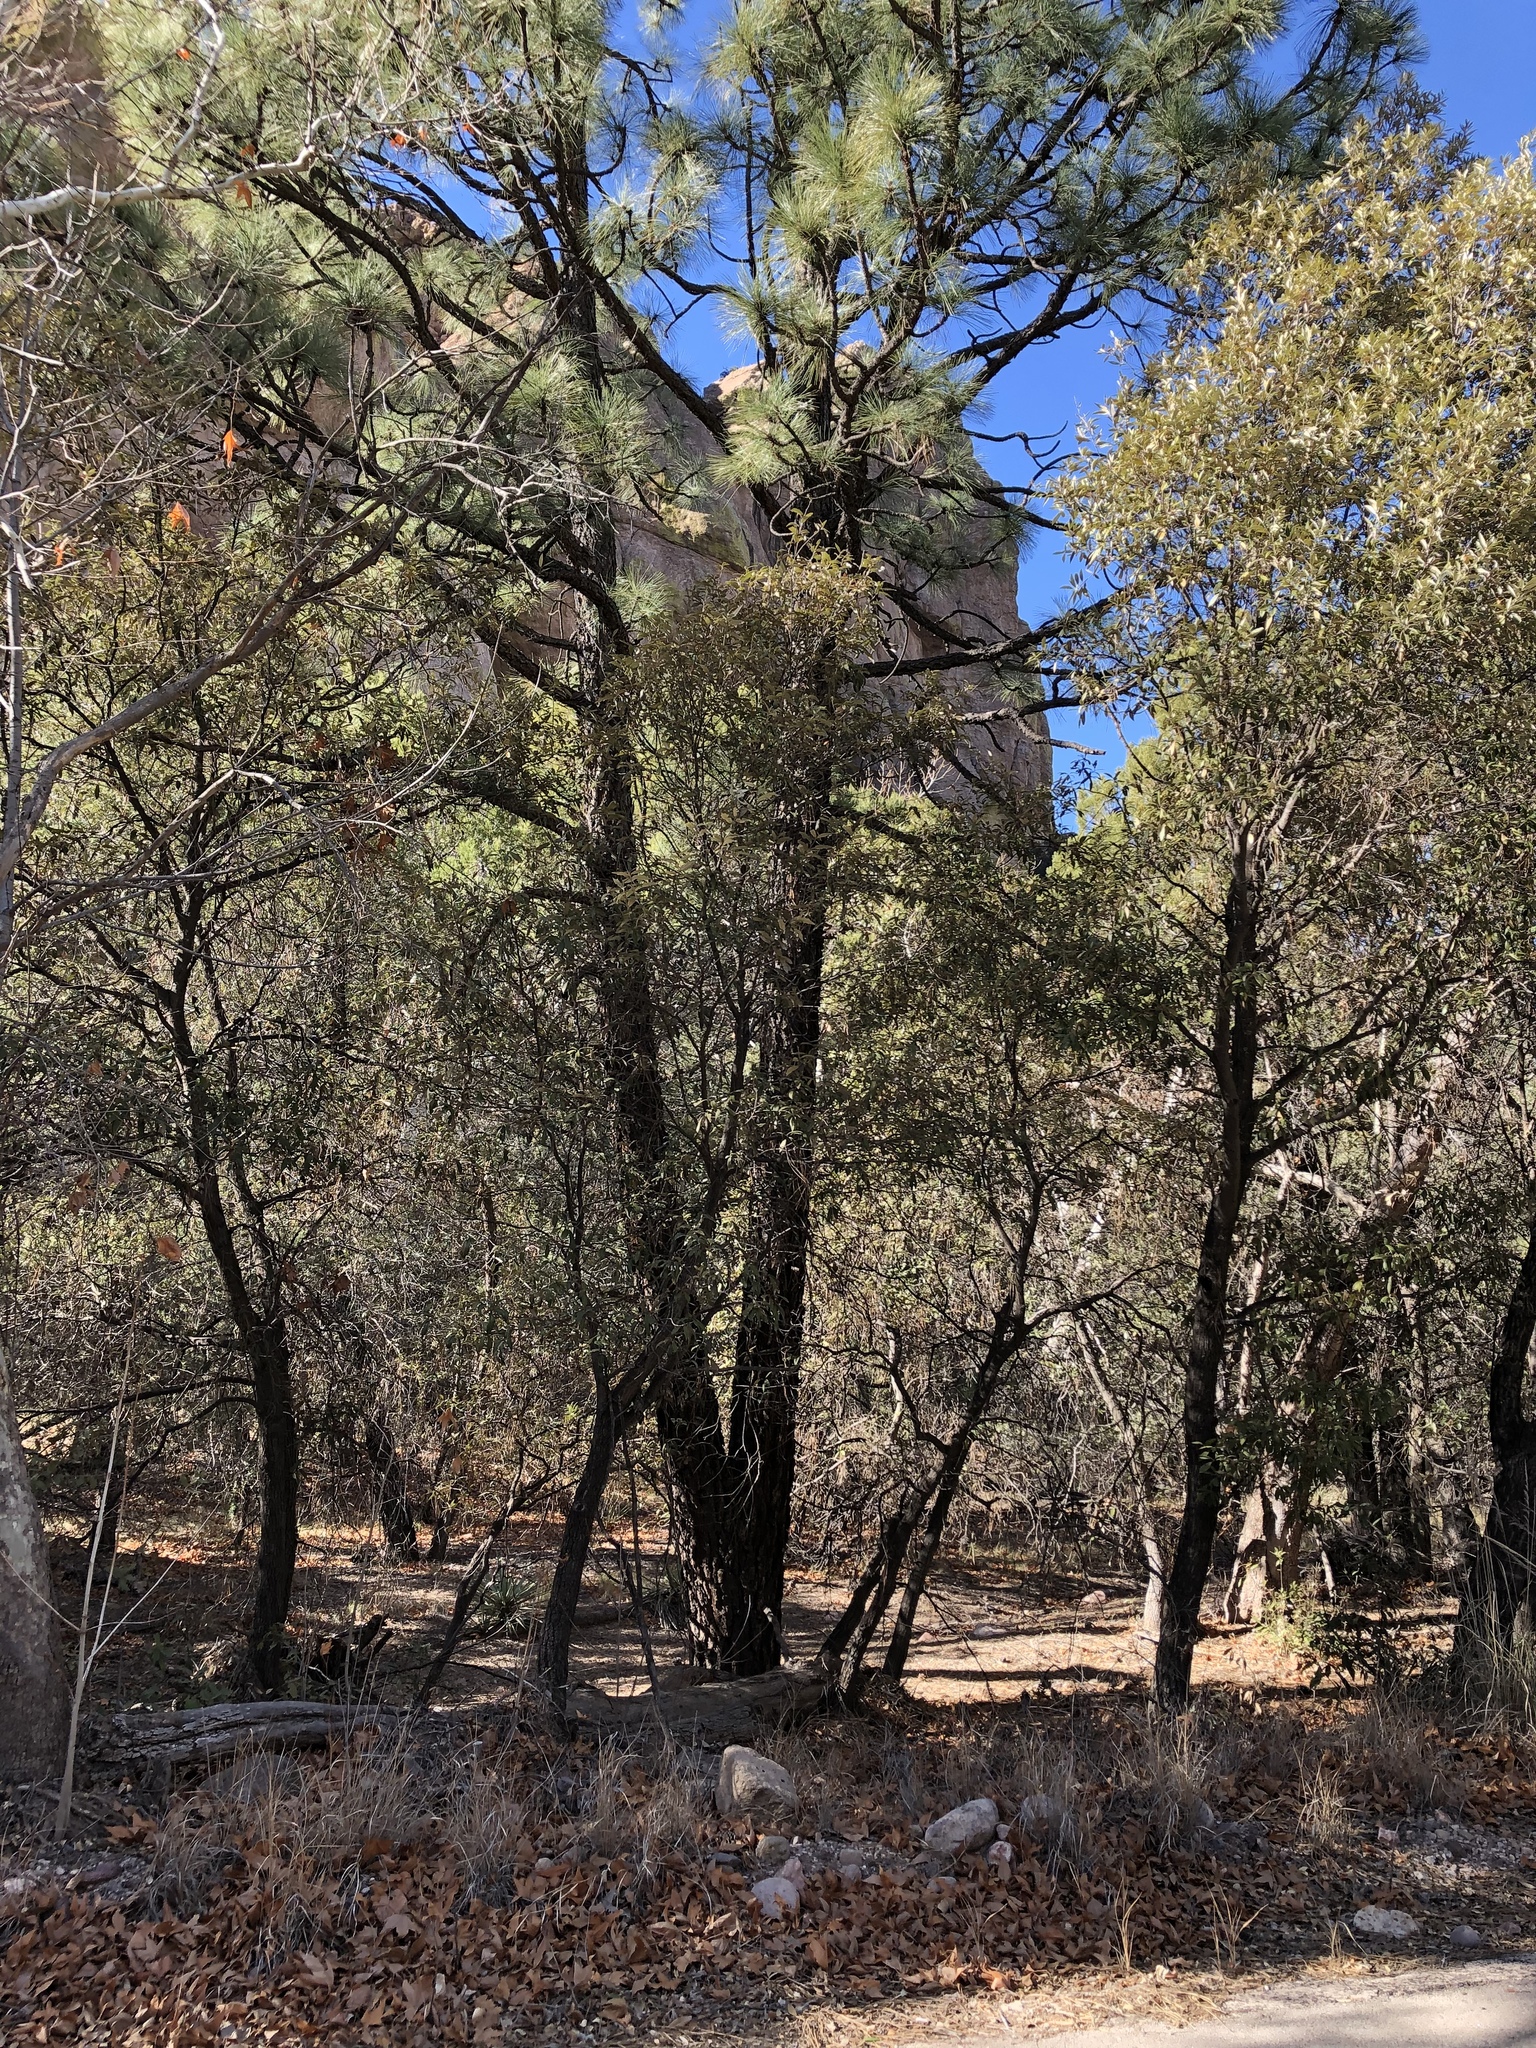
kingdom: Plantae
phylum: Tracheophyta
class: Pinopsida
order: Pinales
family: Pinaceae
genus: Pinus
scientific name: Pinus engelmannii
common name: Apache pine
